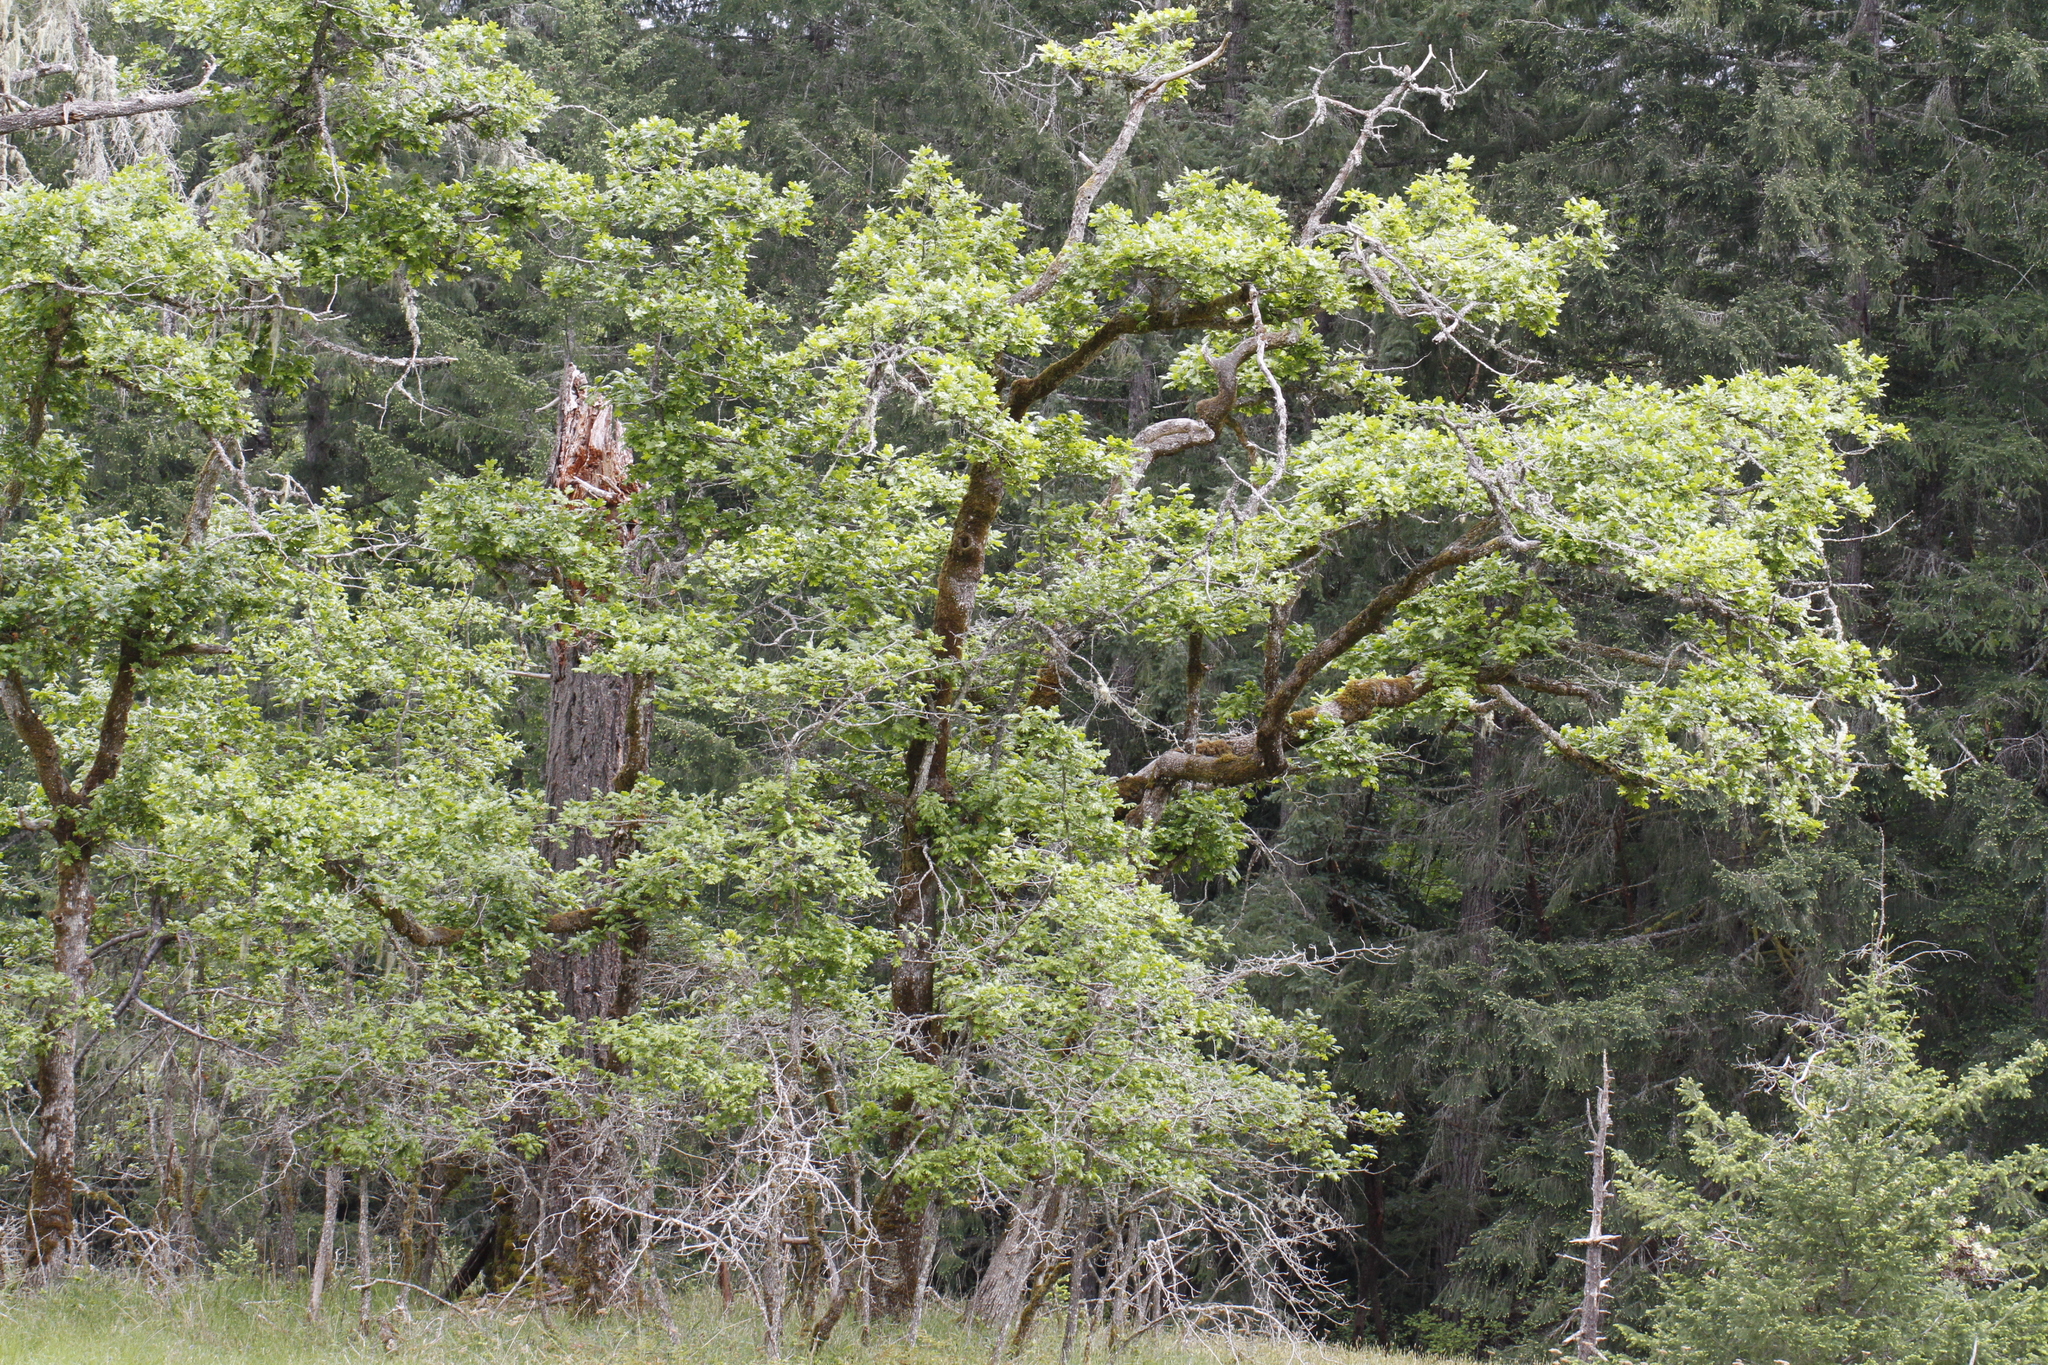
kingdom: Plantae
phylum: Tracheophyta
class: Magnoliopsida
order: Fagales
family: Fagaceae
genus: Quercus
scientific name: Quercus garryana
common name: Garry oak
